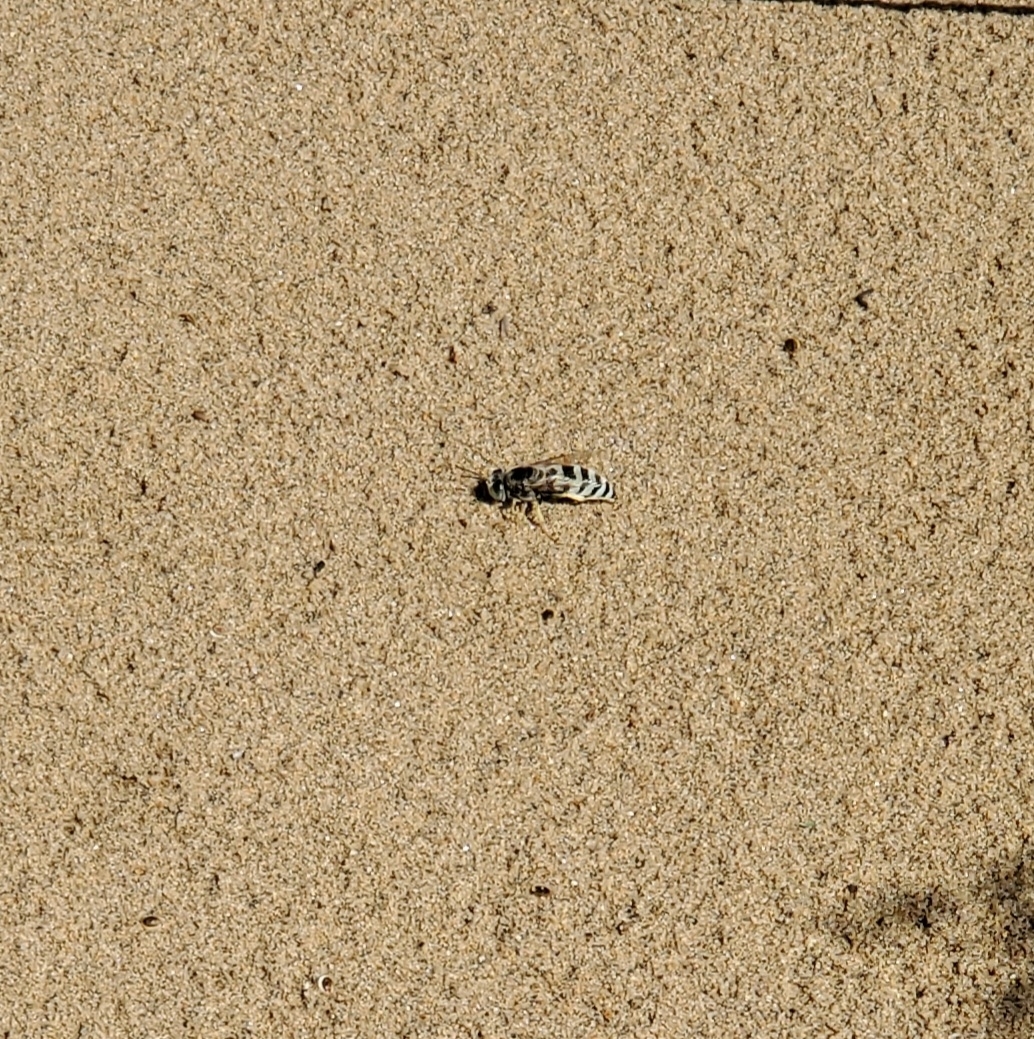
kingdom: Animalia
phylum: Arthropoda
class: Insecta
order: Hymenoptera
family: Crabronidae
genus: Bembix
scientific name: Bembix pallidipicta
